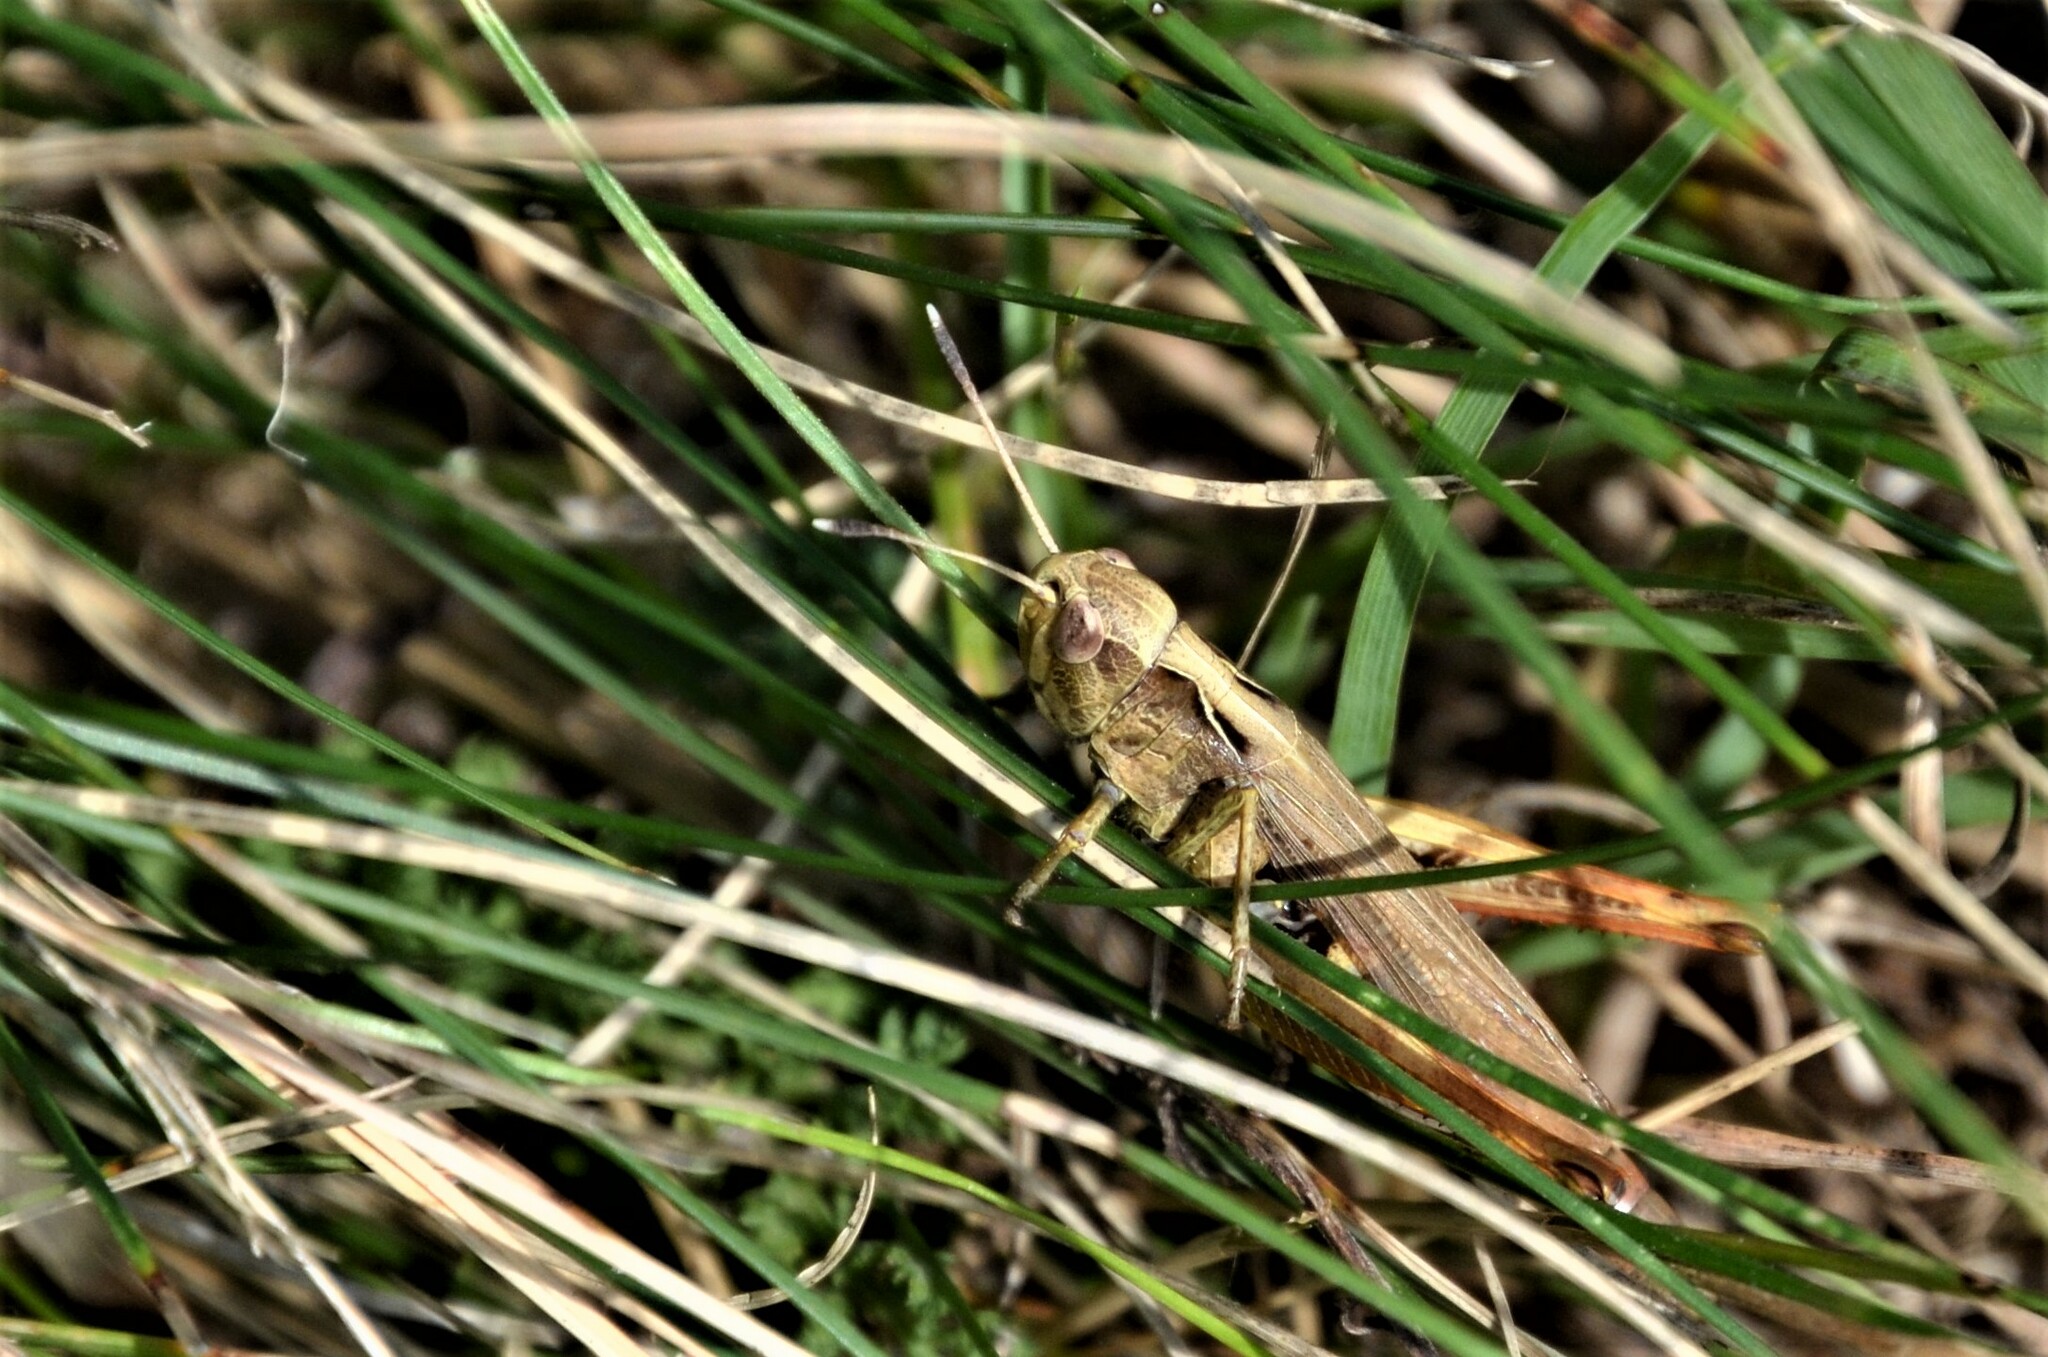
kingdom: Animalia
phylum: Arthropoda
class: Insecta
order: Orthoptera
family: Acrididae
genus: Gomphocerippus
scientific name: Gomphocerippus rufus
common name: Rufous grasshopper
